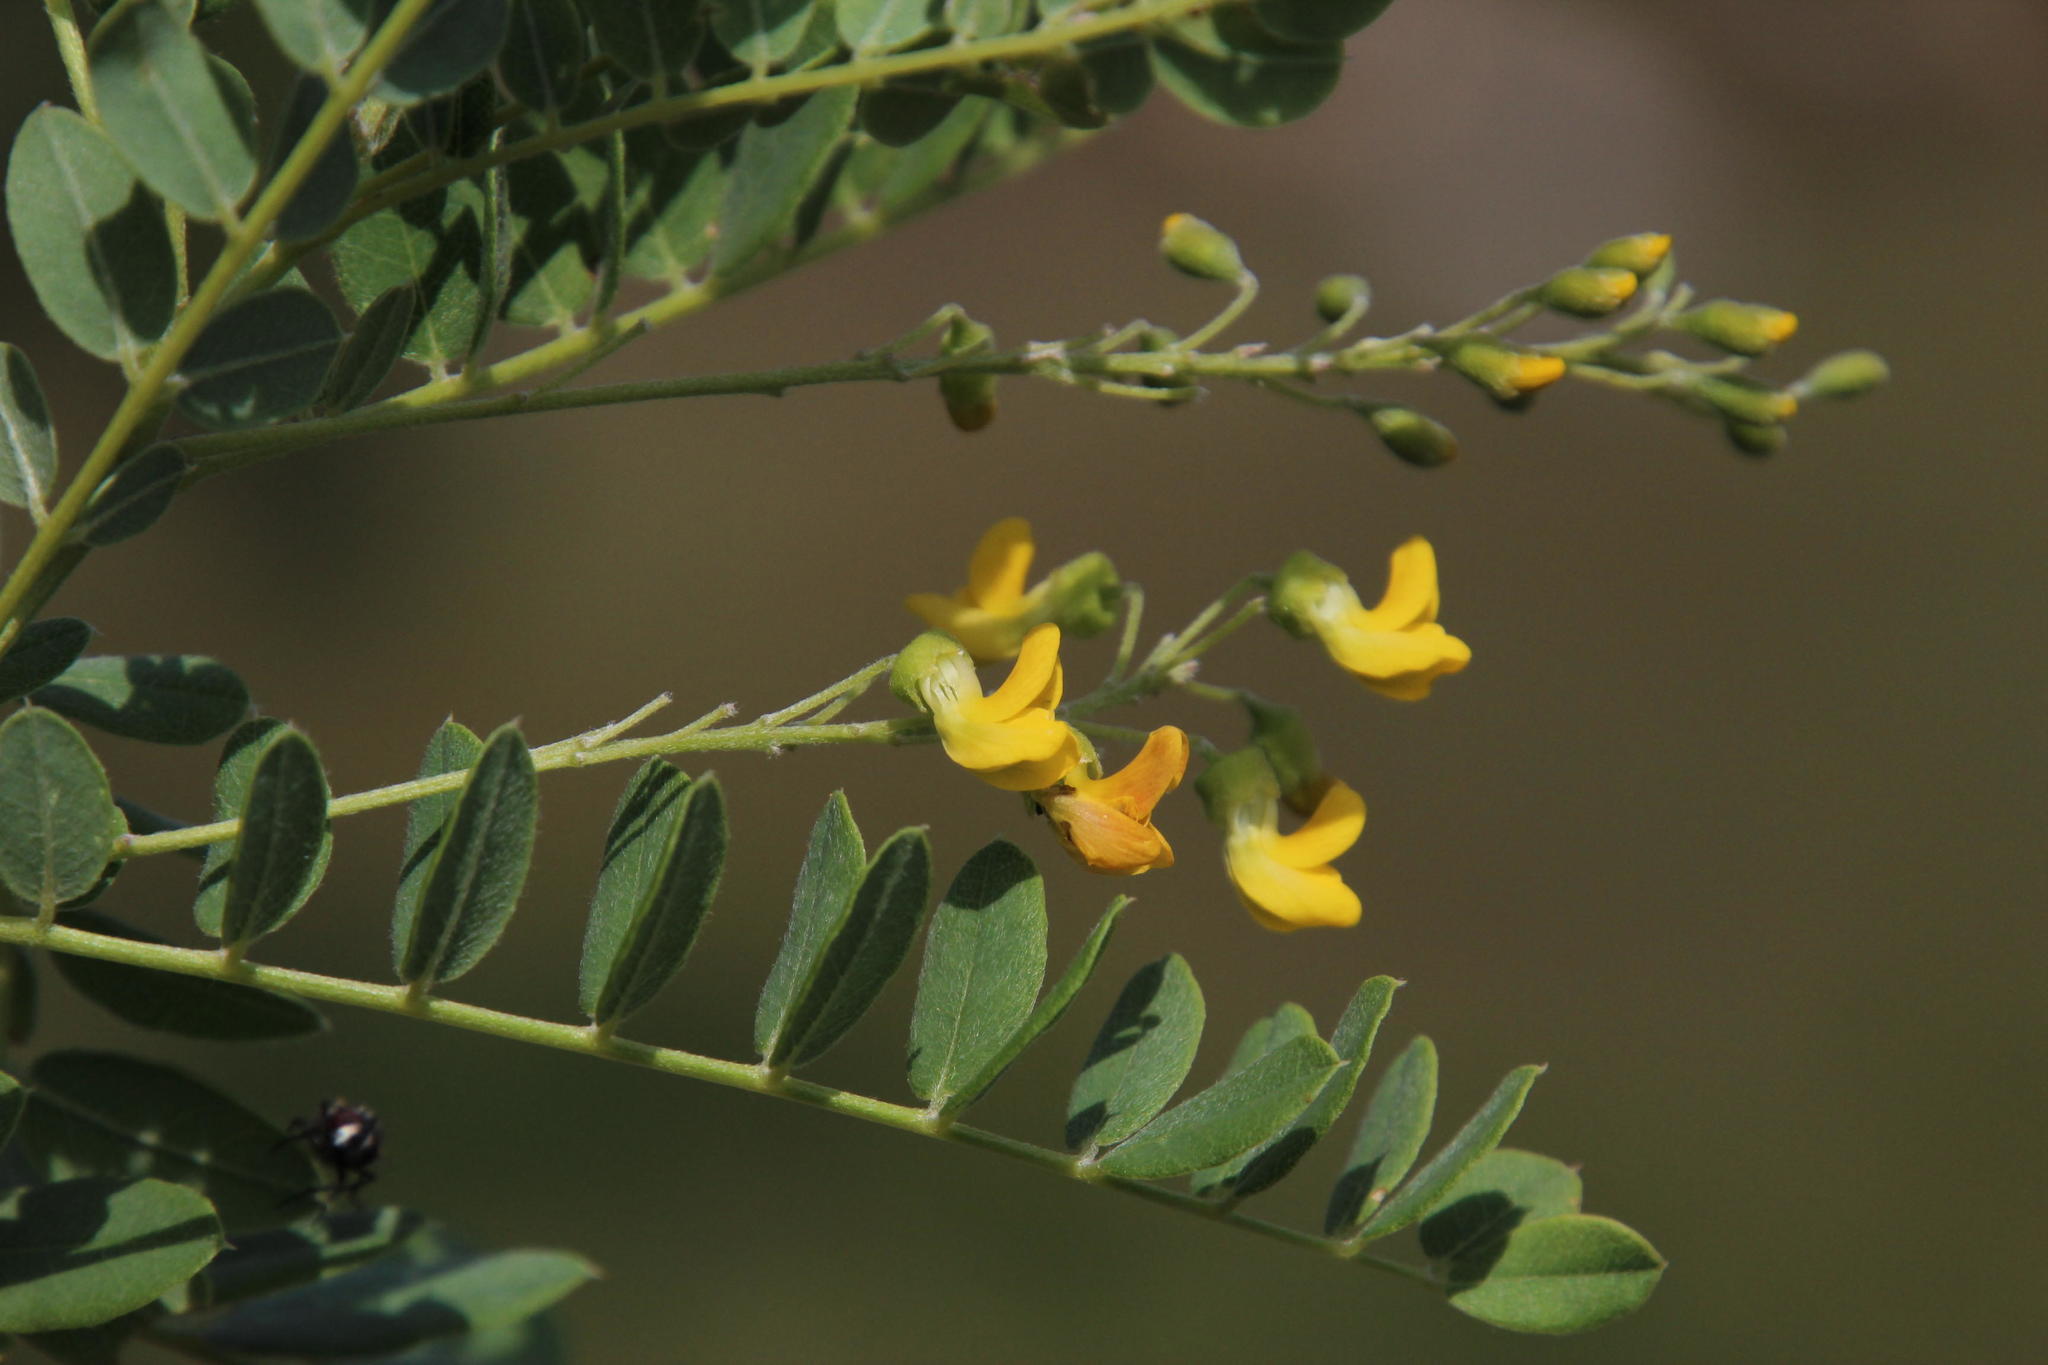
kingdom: Plantae
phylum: Tracheophyta
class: Magnoliopsida
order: Fabales
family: Fabaceae
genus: Calpurnia
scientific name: Calpurnia sericea
